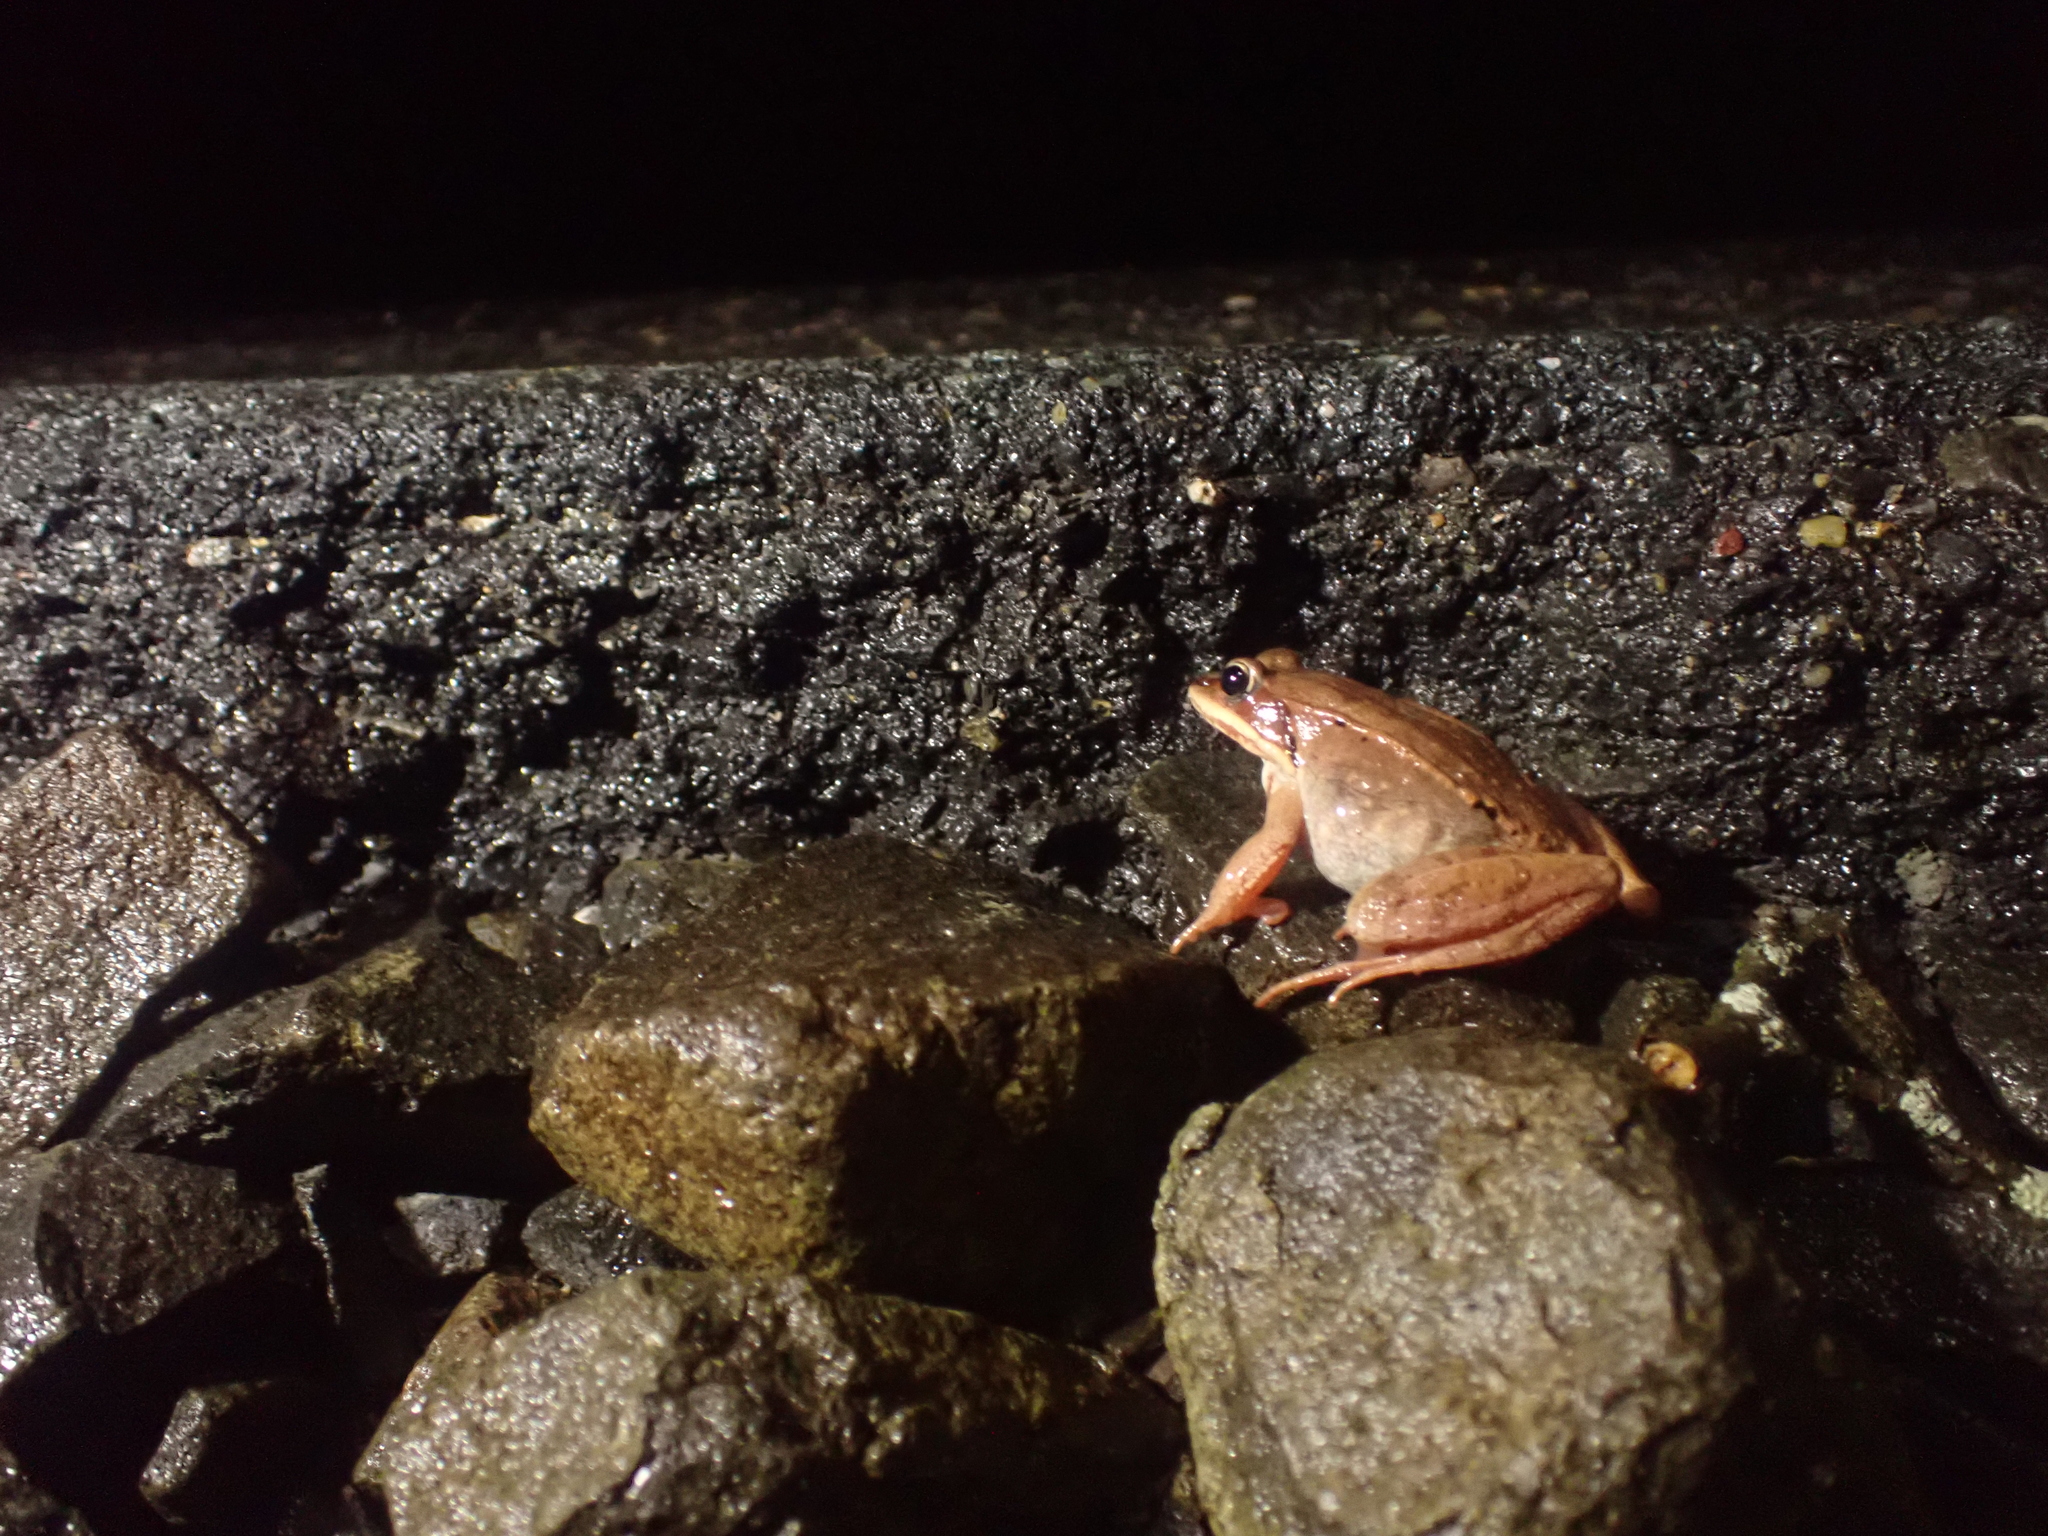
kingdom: Animalia
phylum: Chordata
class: Amphibia
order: Anura
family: Ranidae
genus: Lithobates
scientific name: Lithobates sylvaticus
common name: Wood frog
